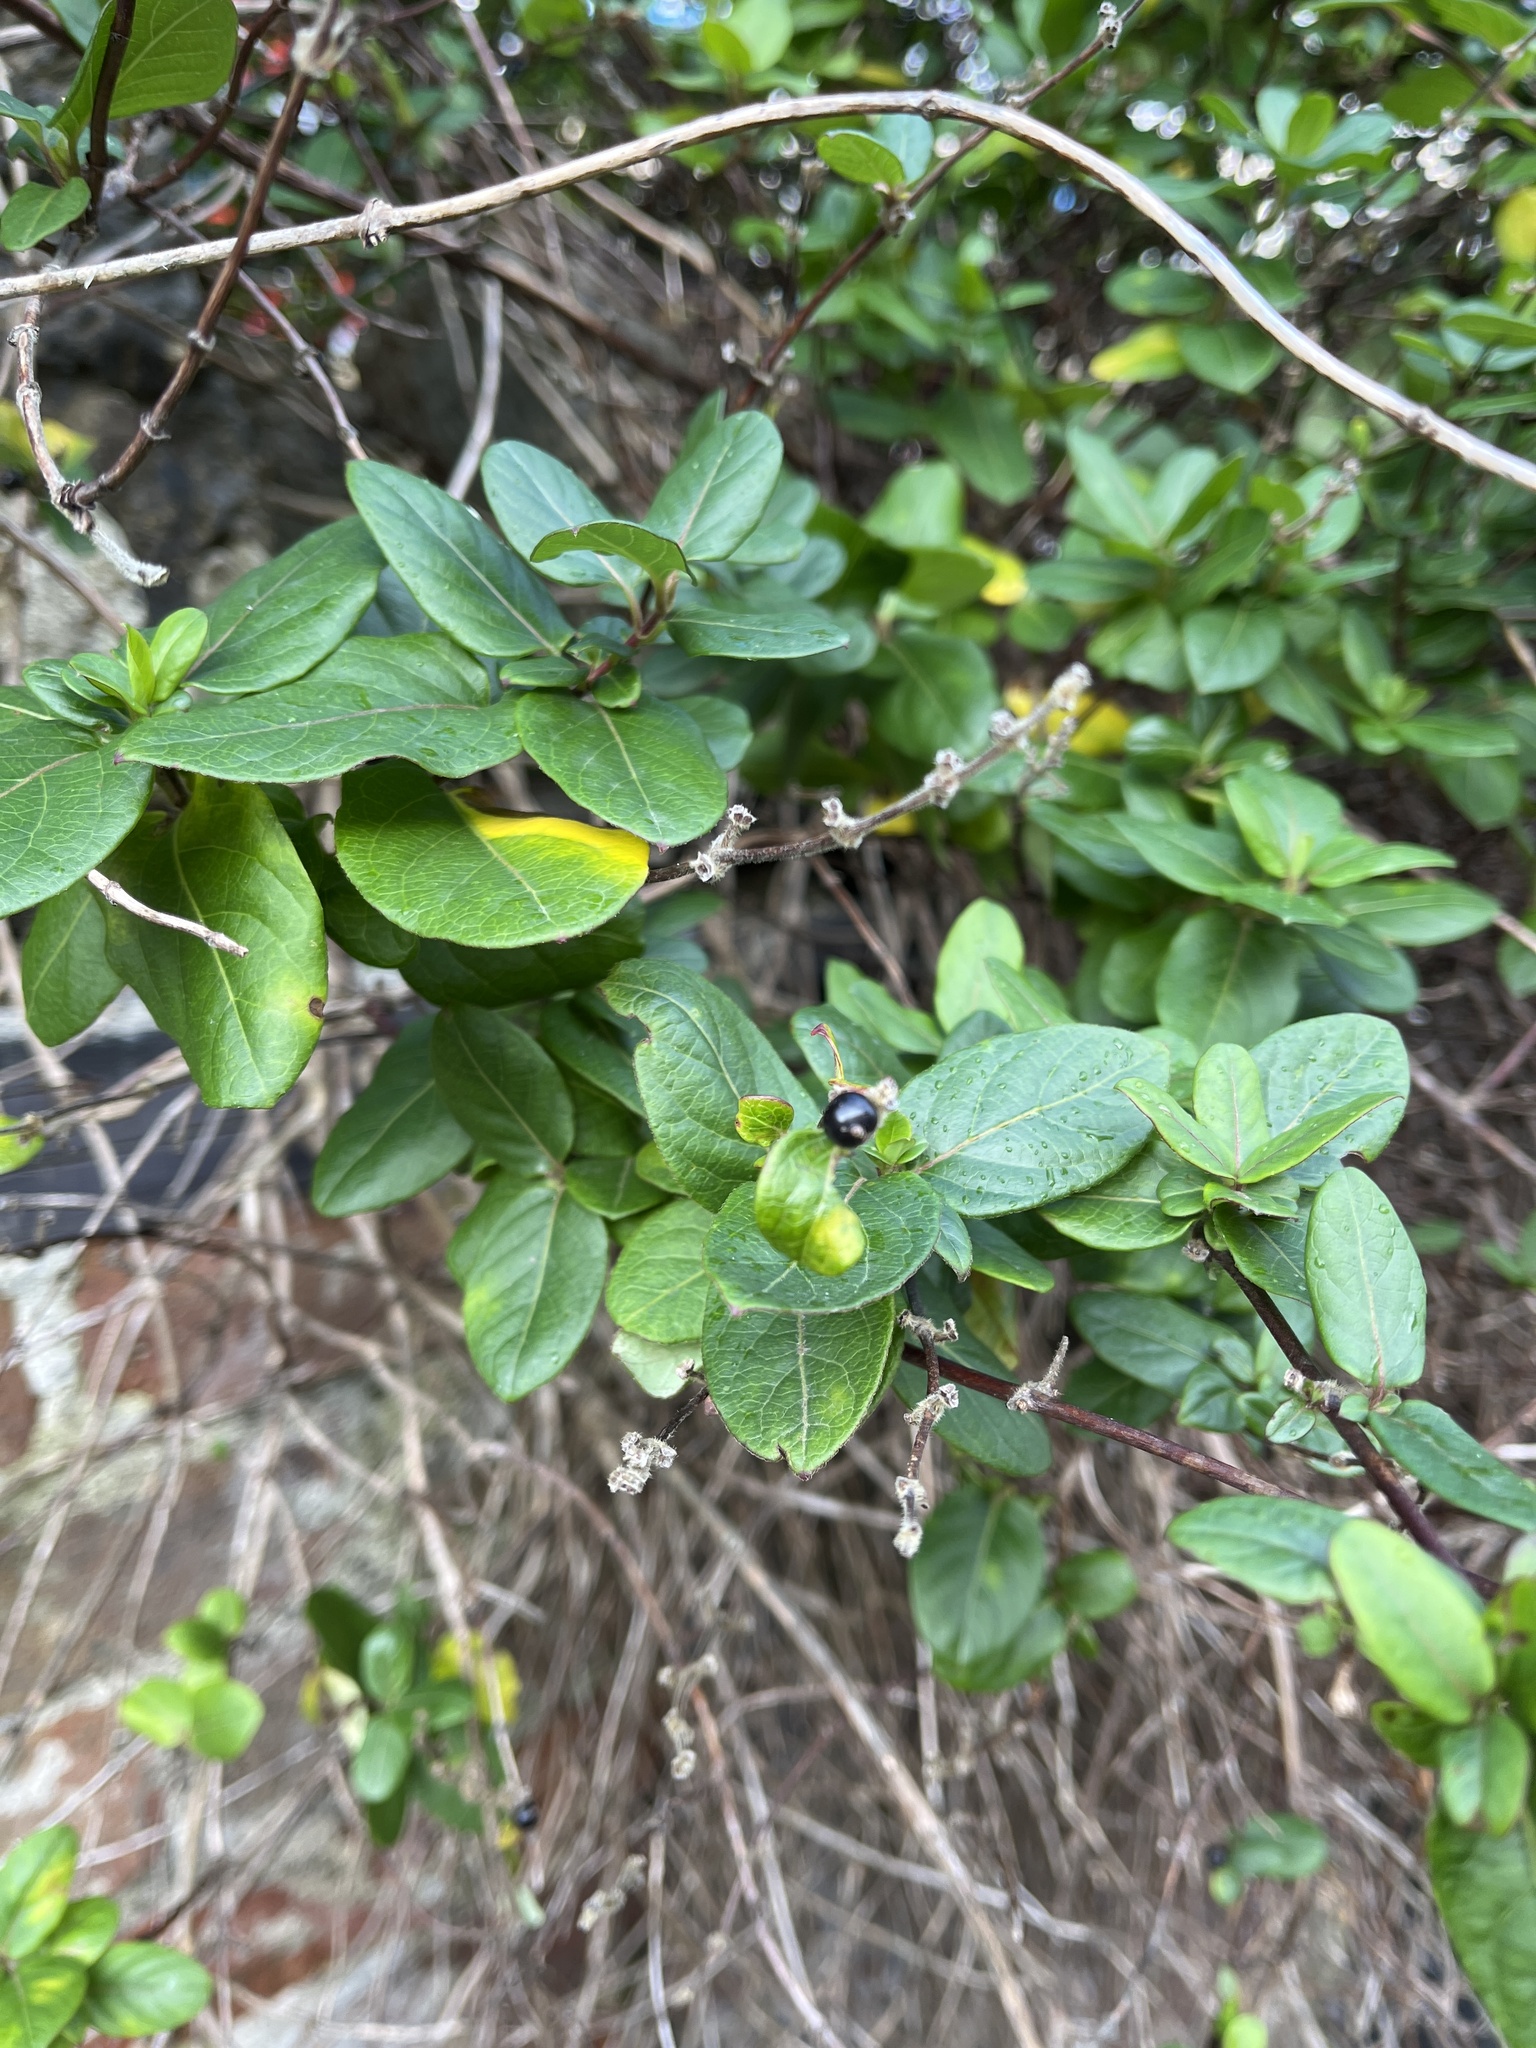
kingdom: Plantae
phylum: Tracheophyta
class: Magnoliopsida
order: Dipsacales
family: Caprifoliaceae
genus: Lonicera
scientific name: Lonicera japonica
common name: Japanese honeysuckle
